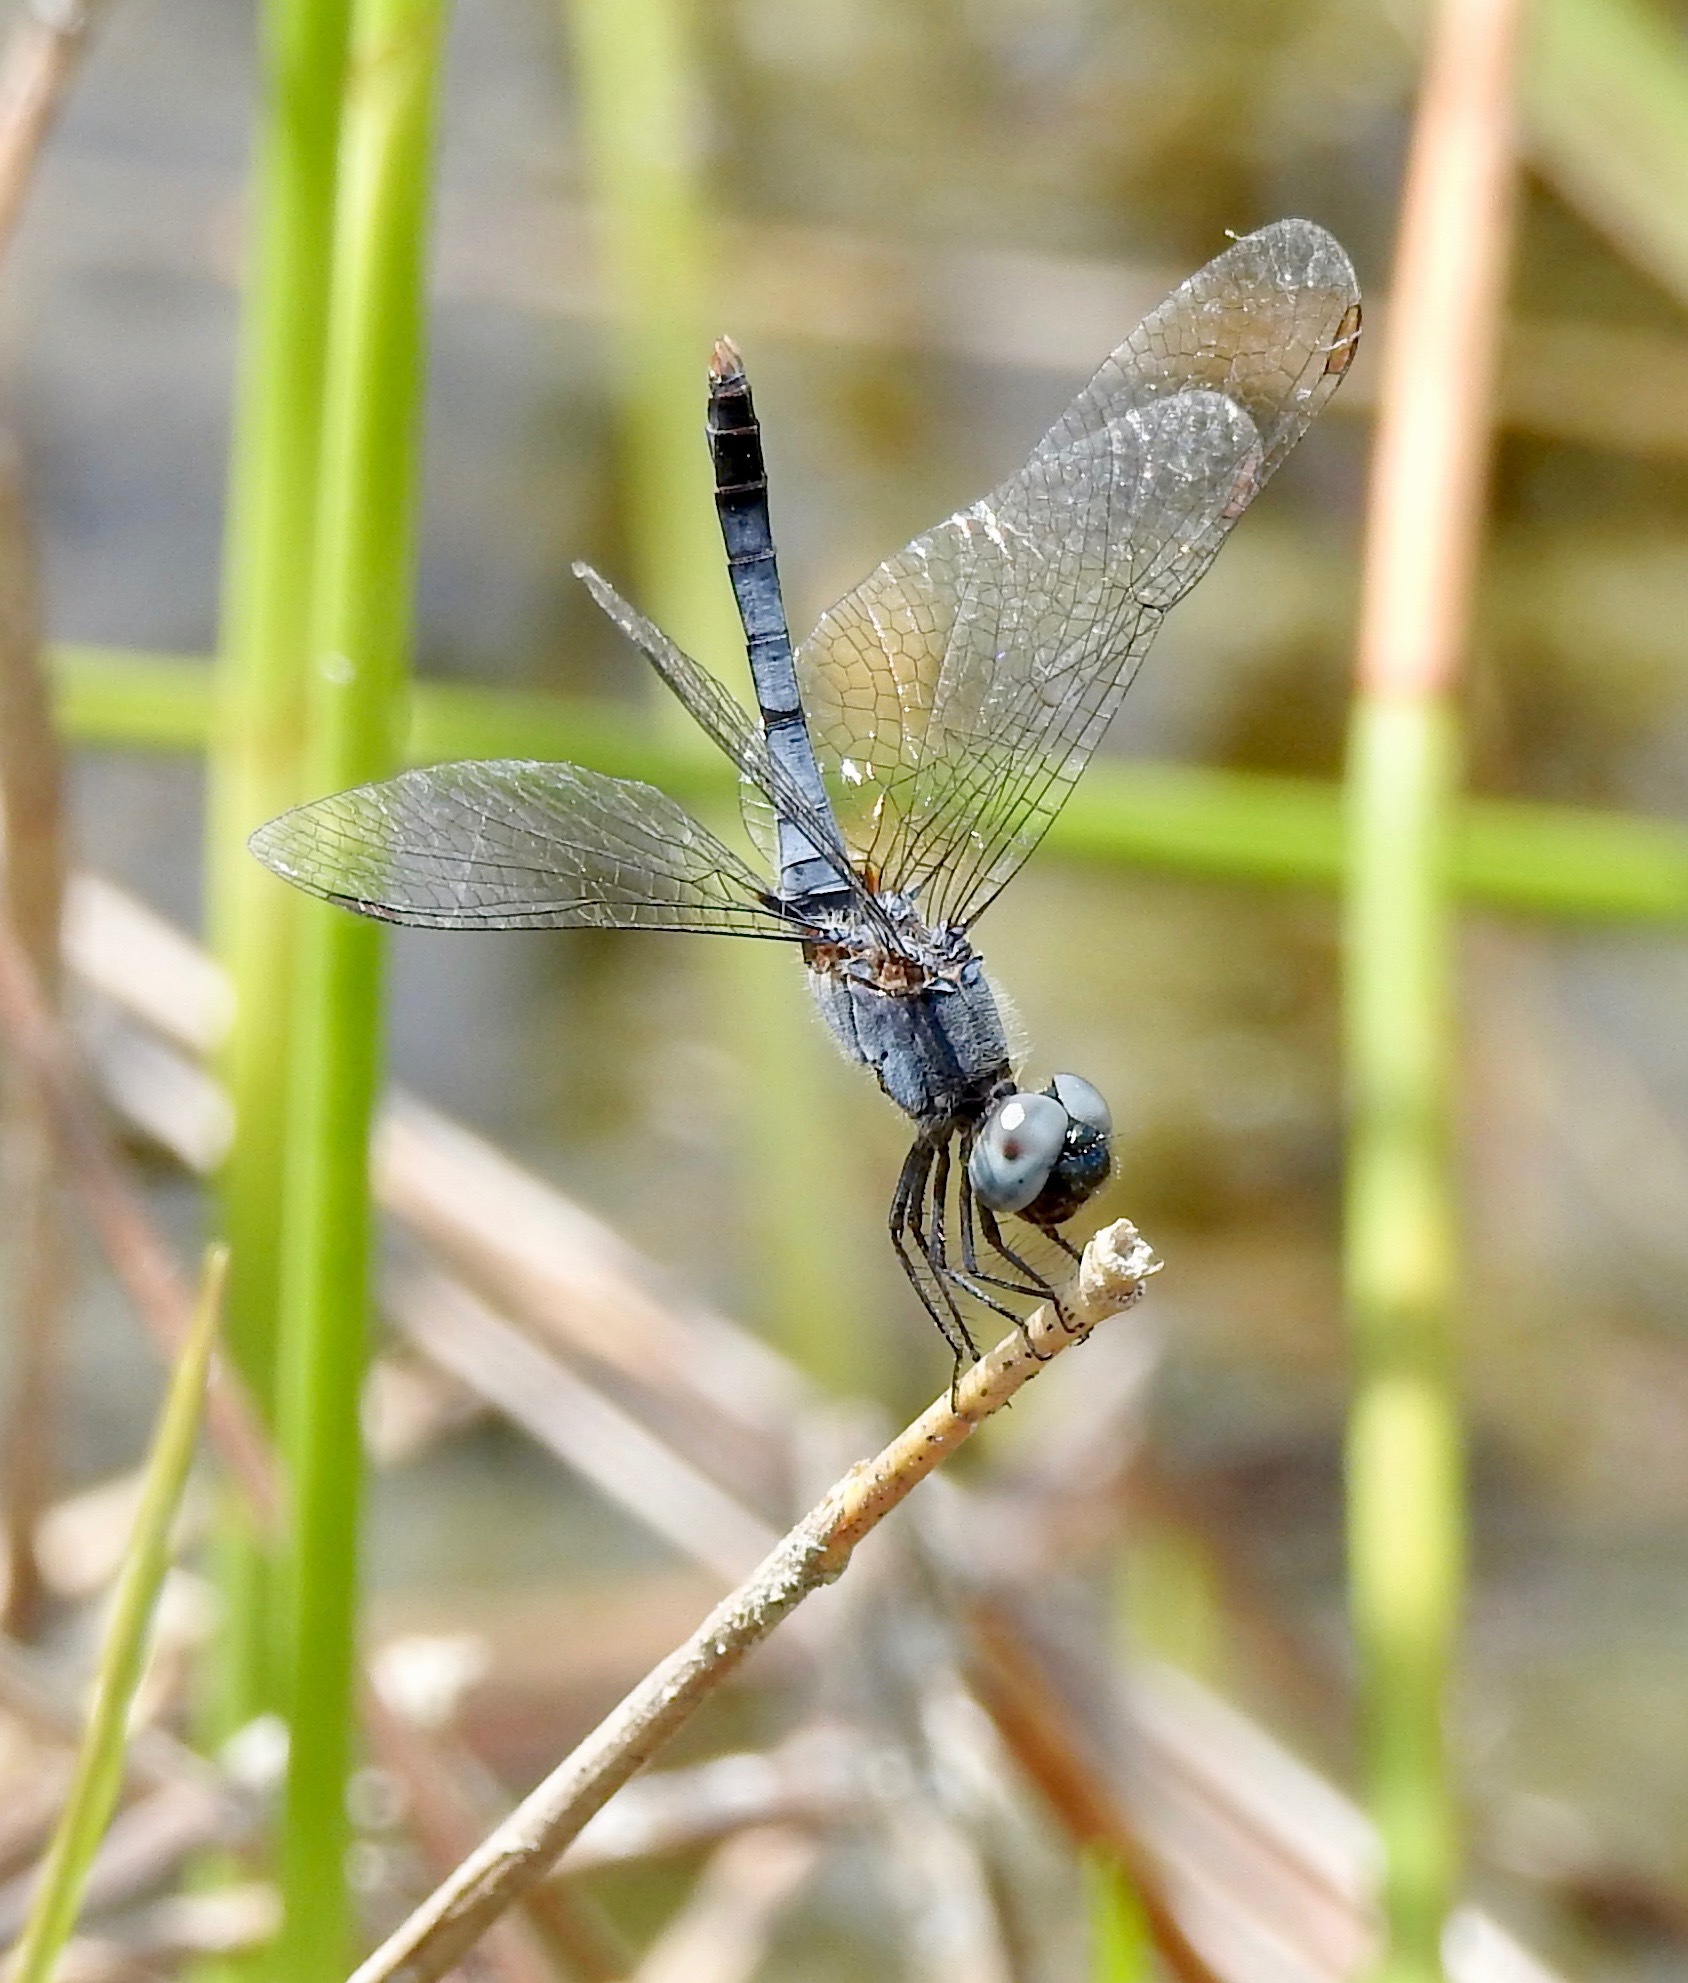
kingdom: Animalia
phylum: Arthropoda
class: Insecta
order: Odonata
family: Libellulidae
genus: Erythrodiplax
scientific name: Erythrodiplax minuscula
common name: Little blue dragonlet
